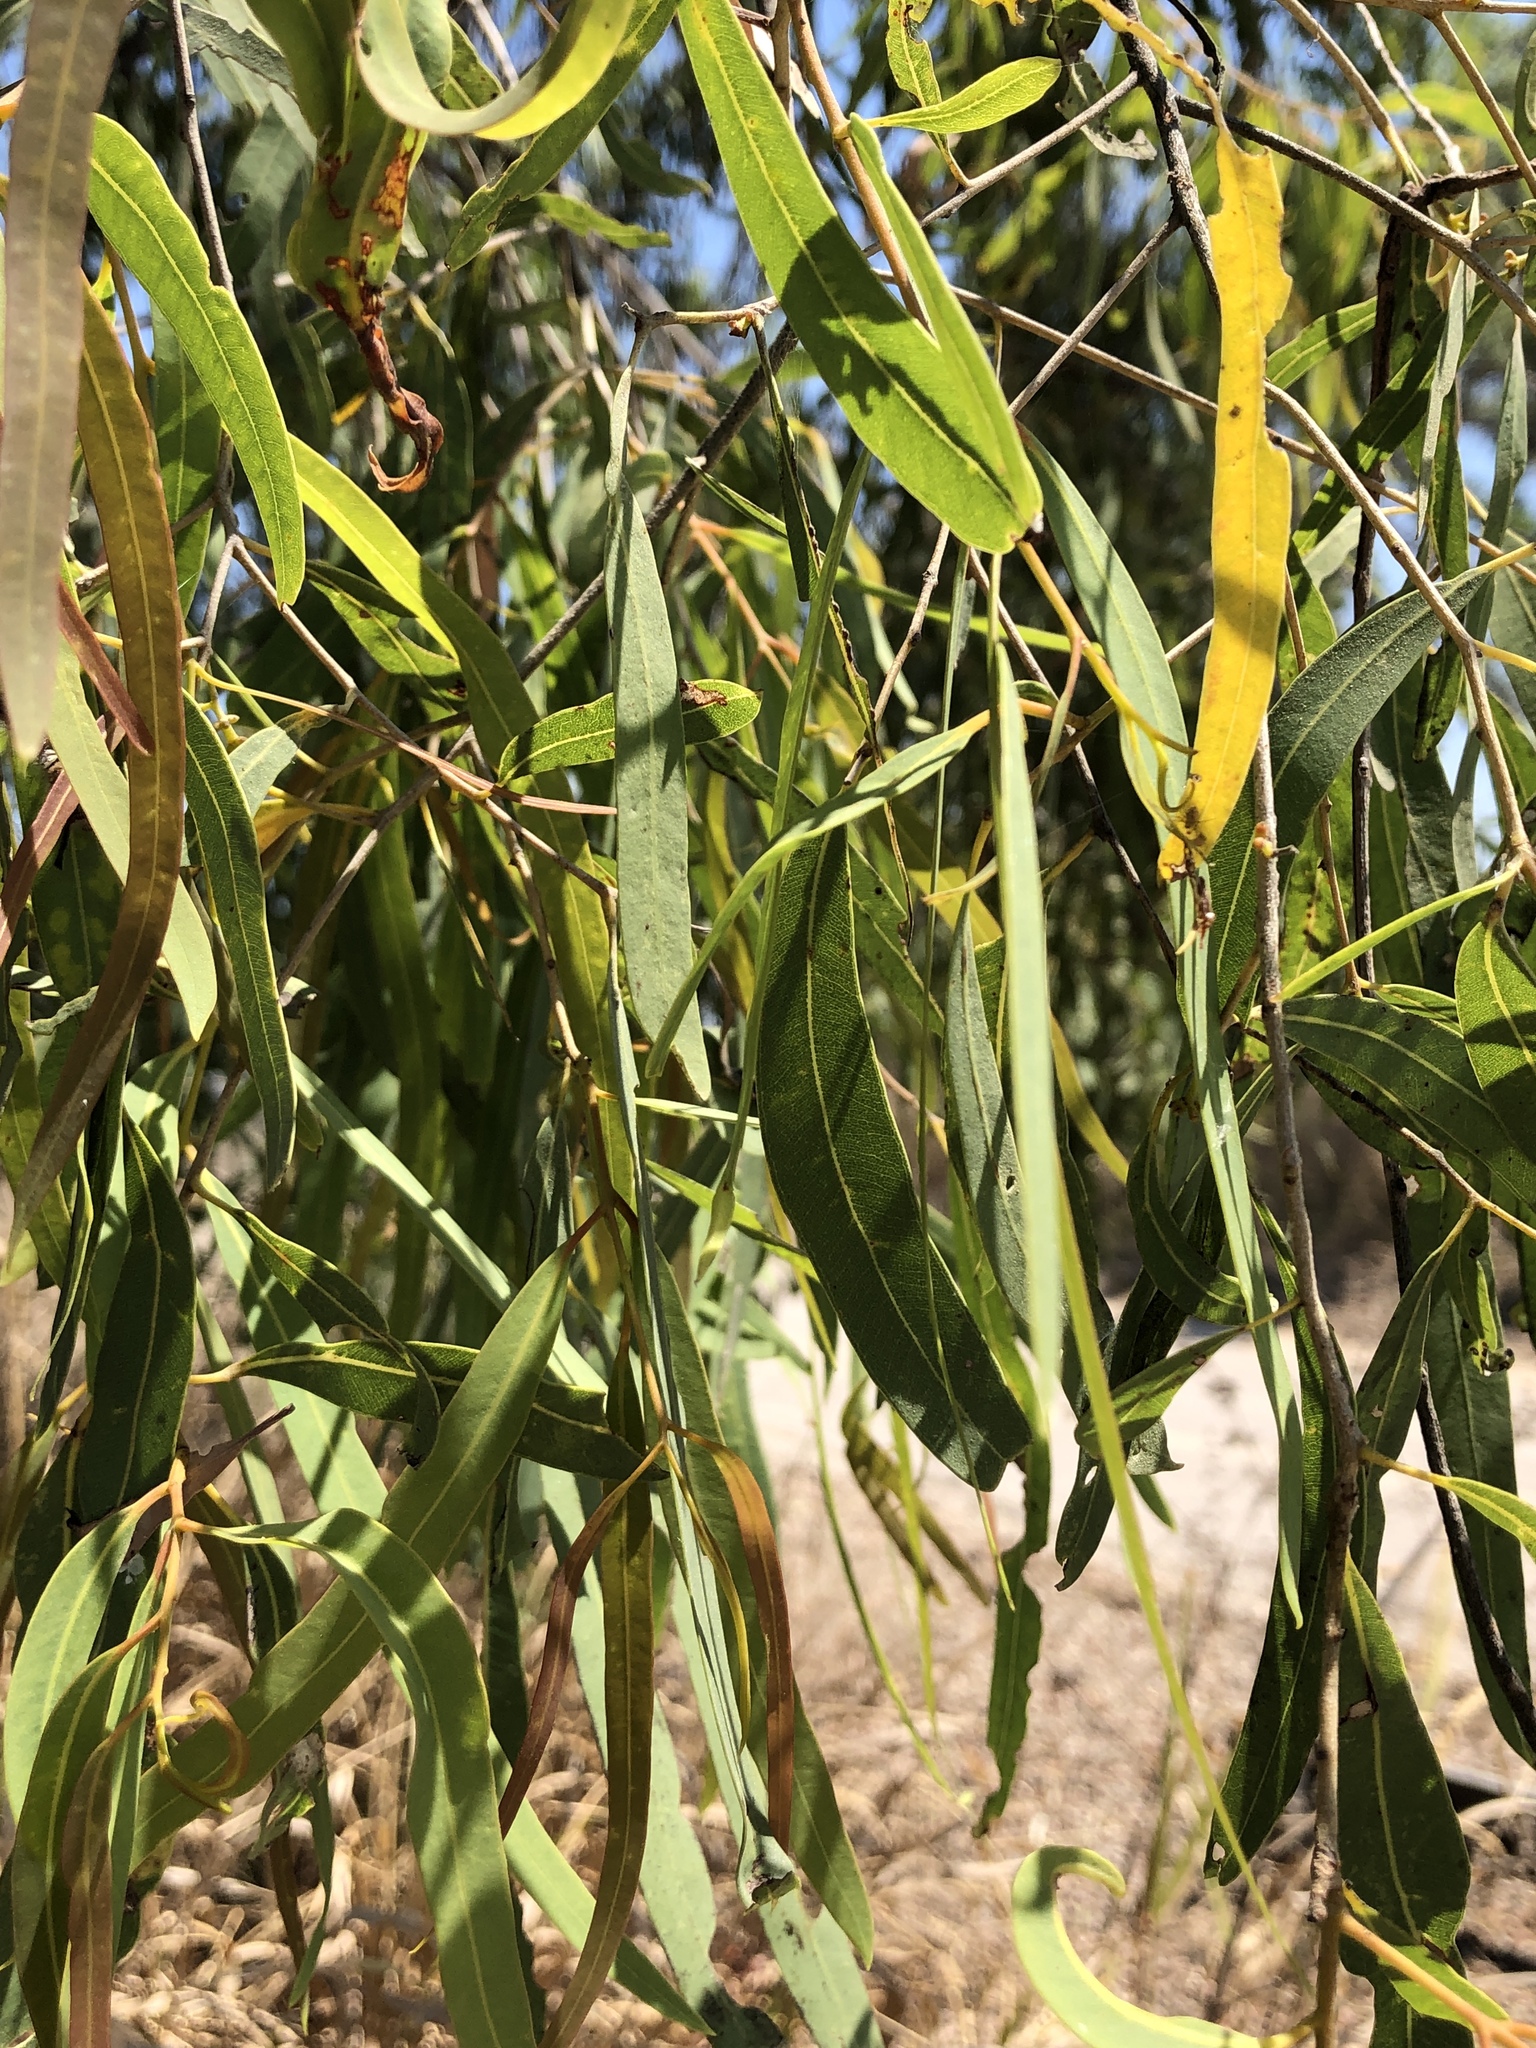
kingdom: Plantae
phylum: Tracheophyta
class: Magnoliopsida
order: Myrtales
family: Myrtaceae
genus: Corymbia
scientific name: Corymbia tessellaris
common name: Carbeen
